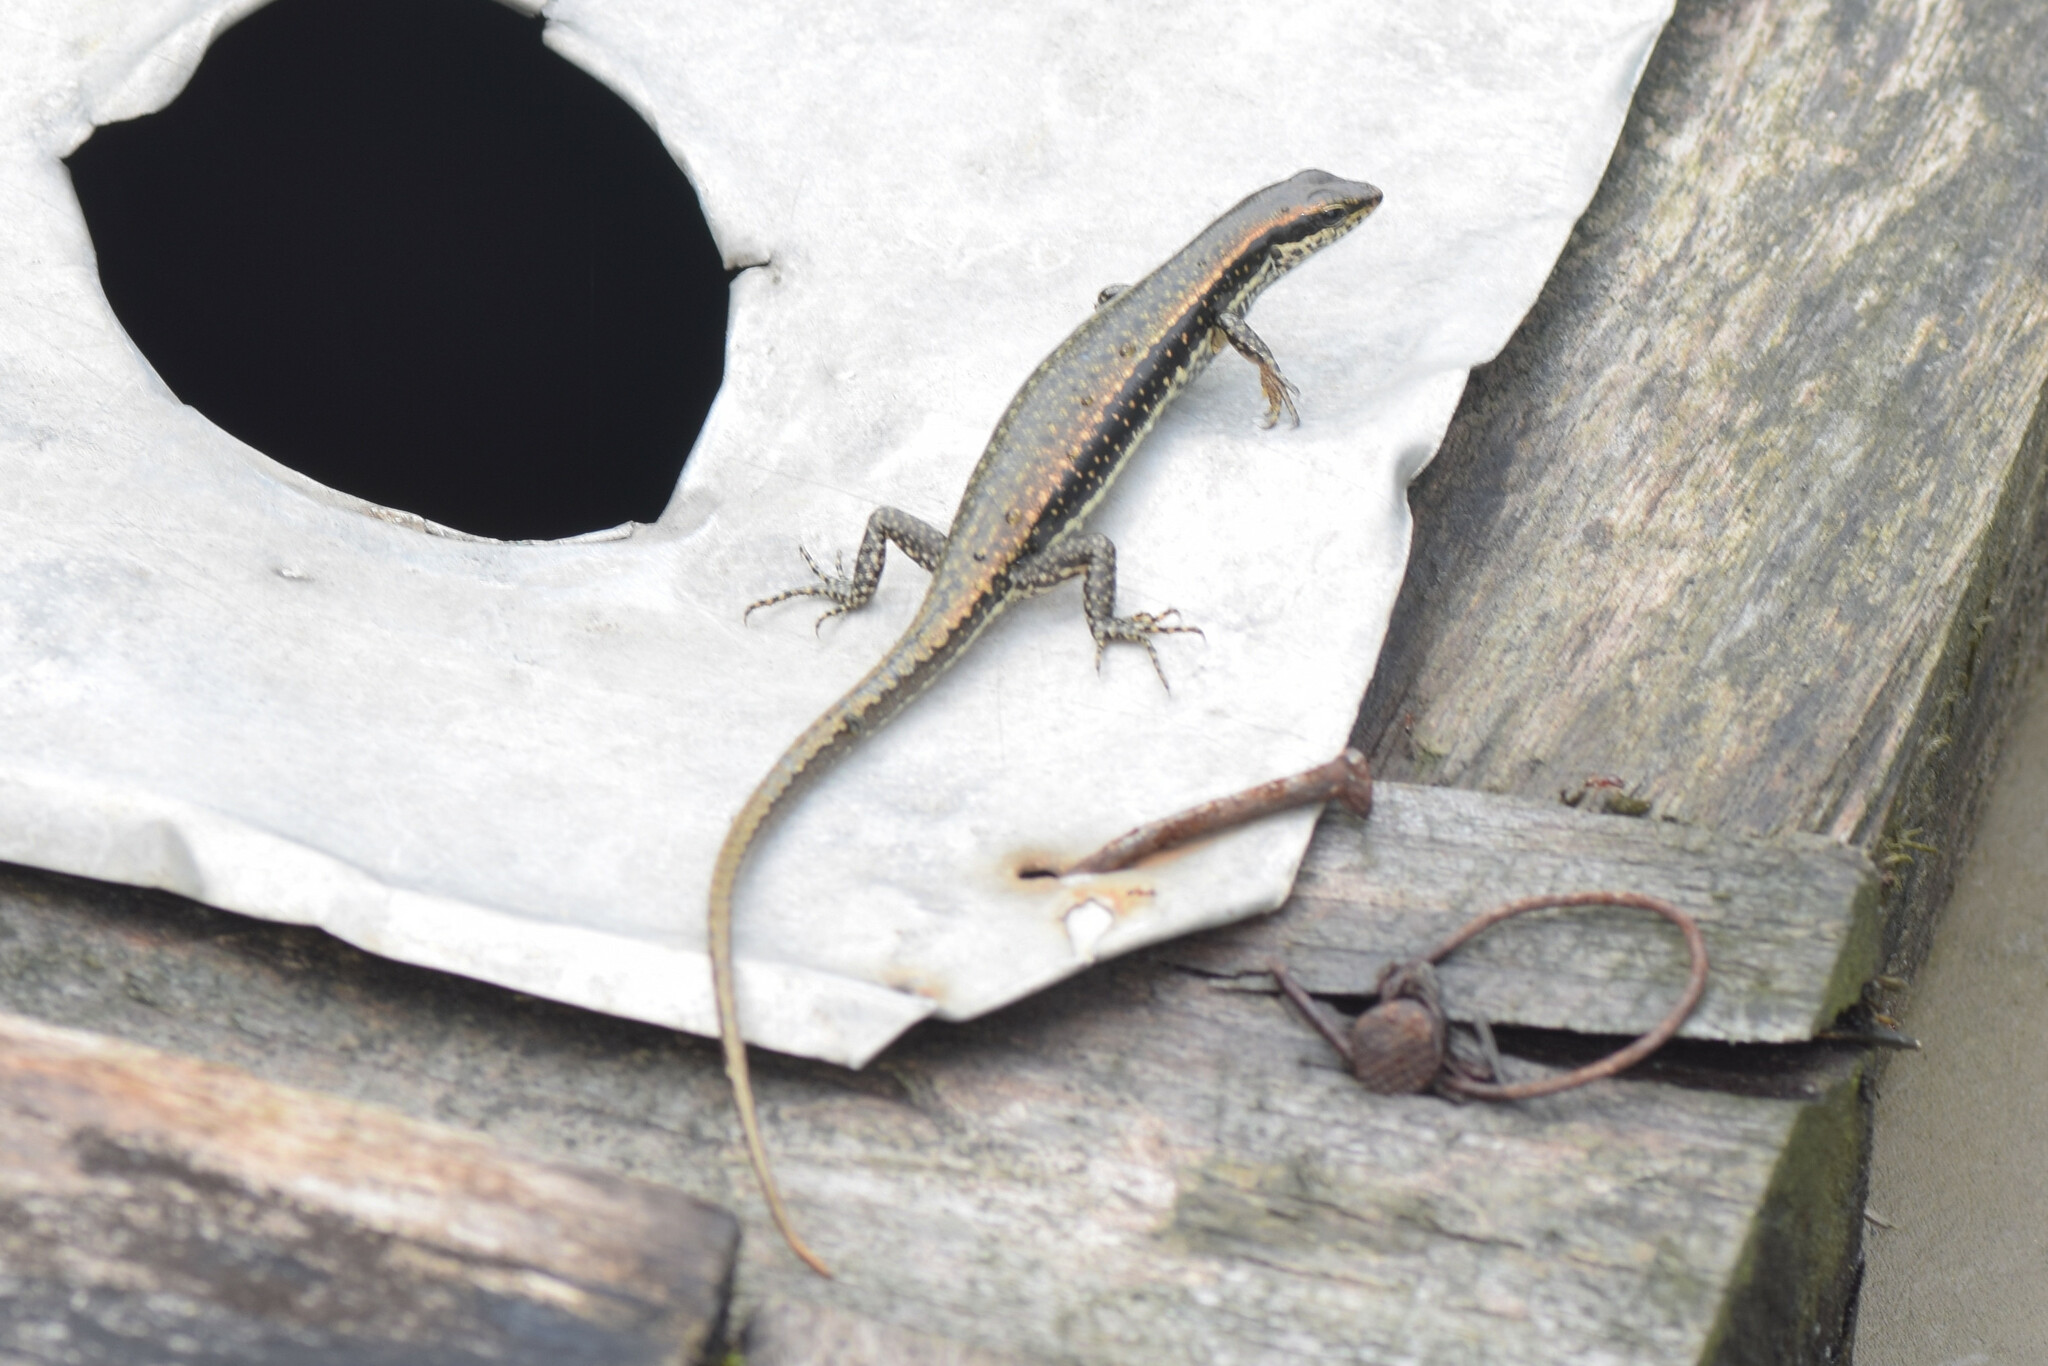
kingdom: Animalia
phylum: Chordata
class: Squamata
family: Scincidae
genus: Sphenomorphus
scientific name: Sphenomorphus maculatus
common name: Maculated forest skink
